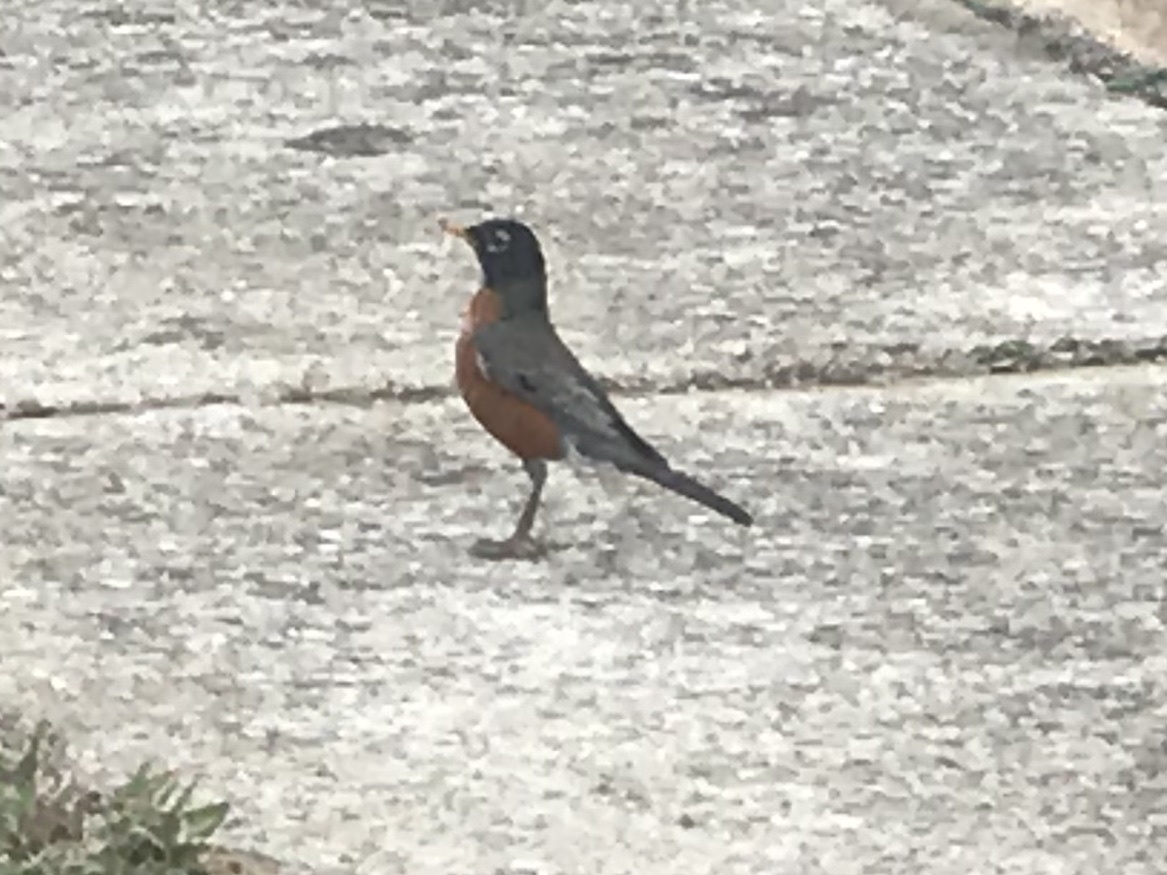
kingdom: Animalia
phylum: Chordata
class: Aves
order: Passeriformes
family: Turdidae
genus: Turdus
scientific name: Turdus migratorius
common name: American robin
